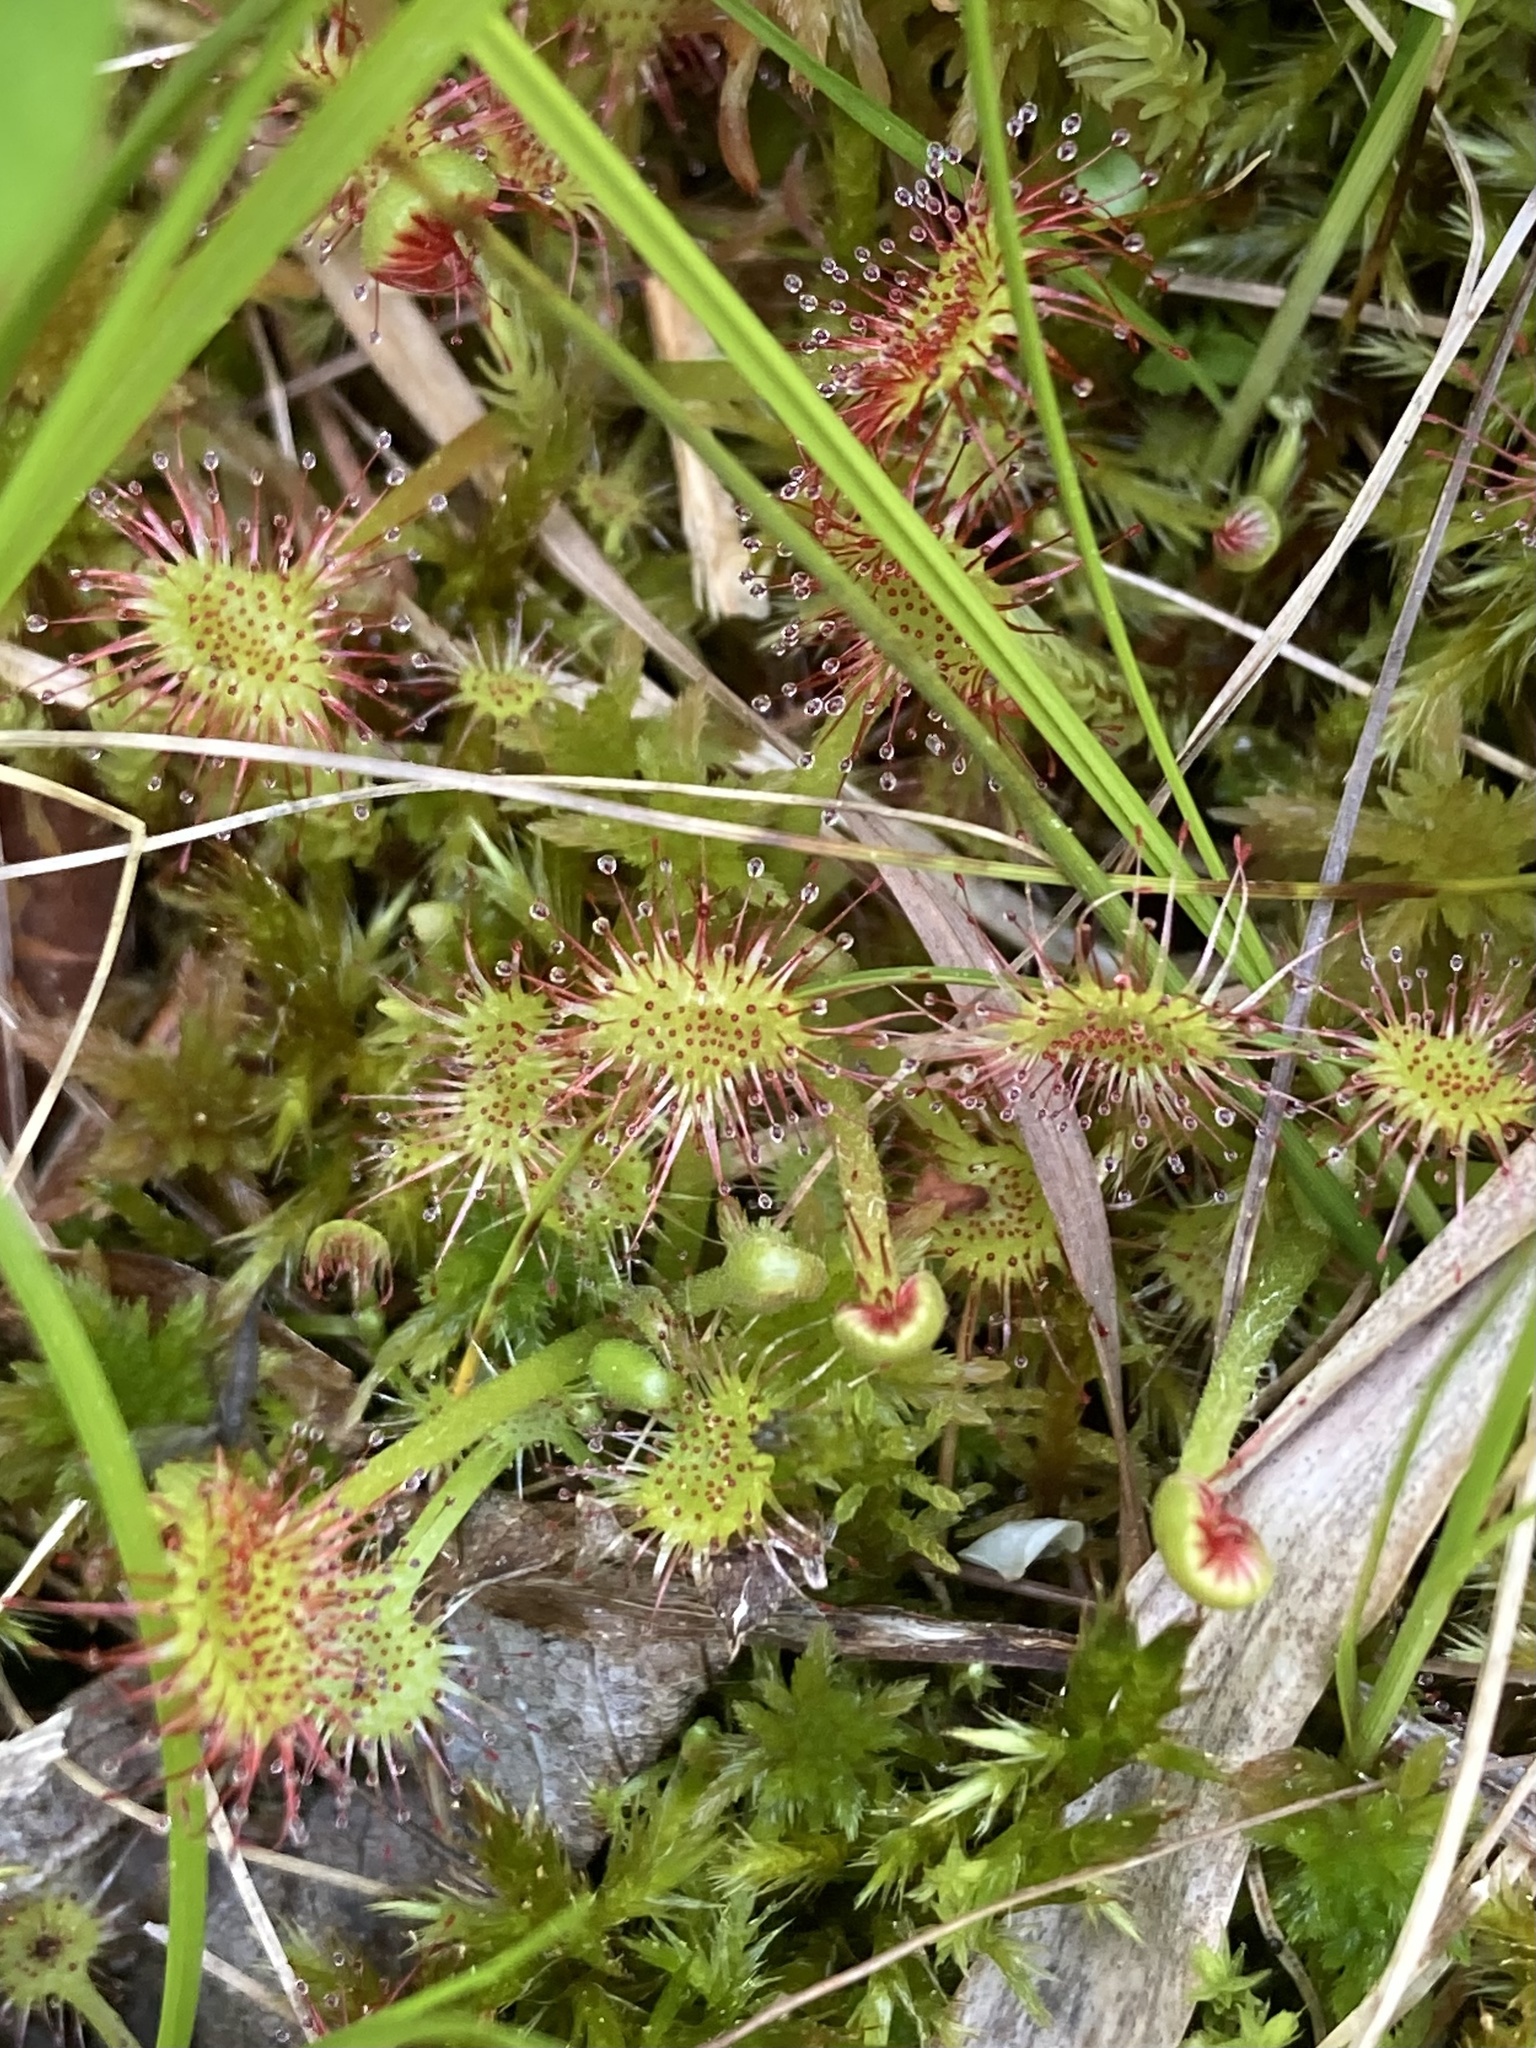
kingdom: Plantae
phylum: Tracheophyta
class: Magnoliopsida
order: Caryophyllales
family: Droseraceae
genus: Drosera
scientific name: Drosera rotundifolia
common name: Round-leaved sundew
